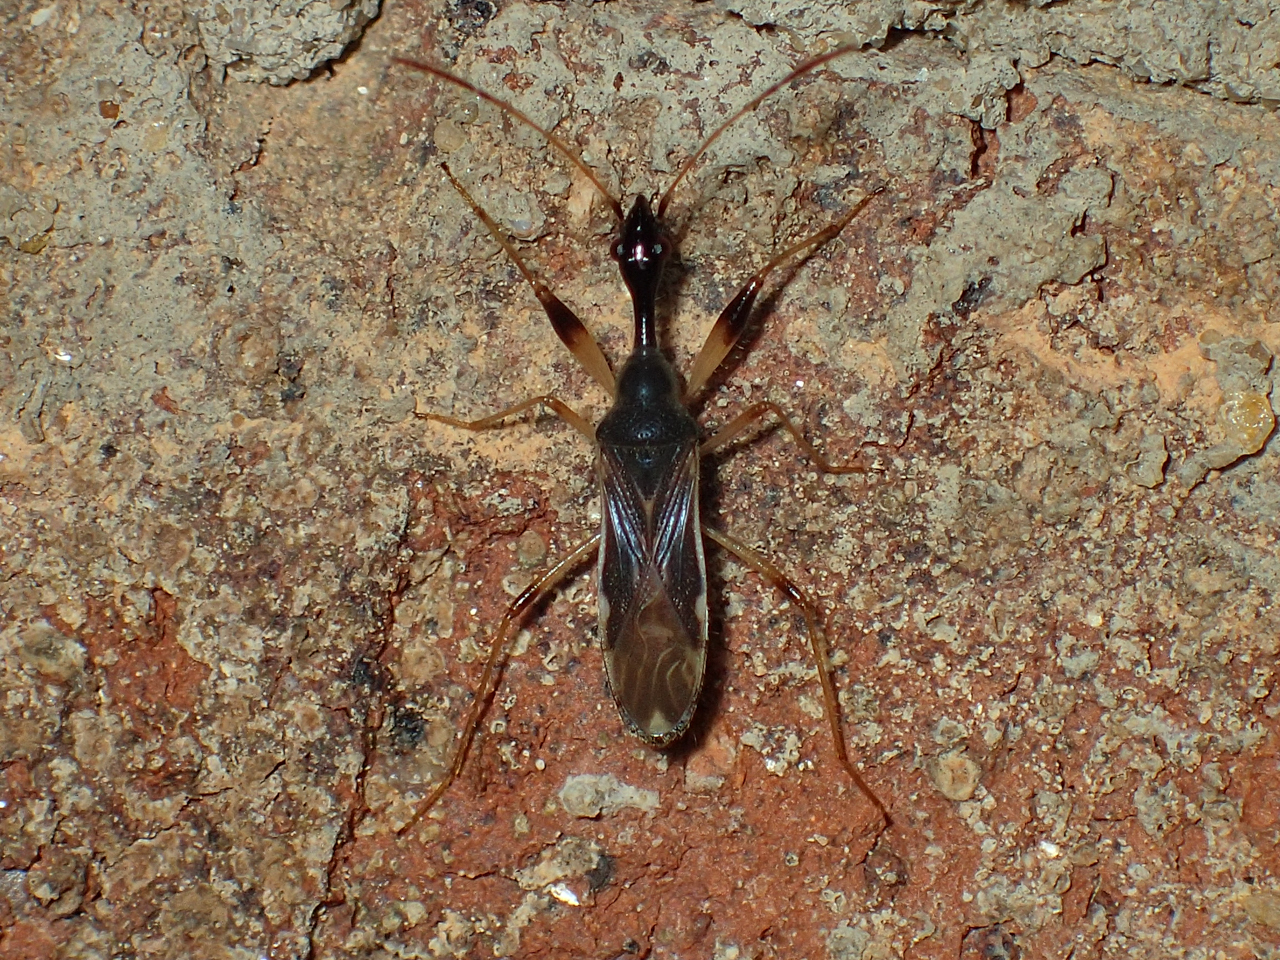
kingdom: Animalia
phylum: Arthropoda
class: Insecta
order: Hemiptera
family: Rhyparochromidae
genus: Myodocha
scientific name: Myodocha serripes
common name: Long-necked seed bug
